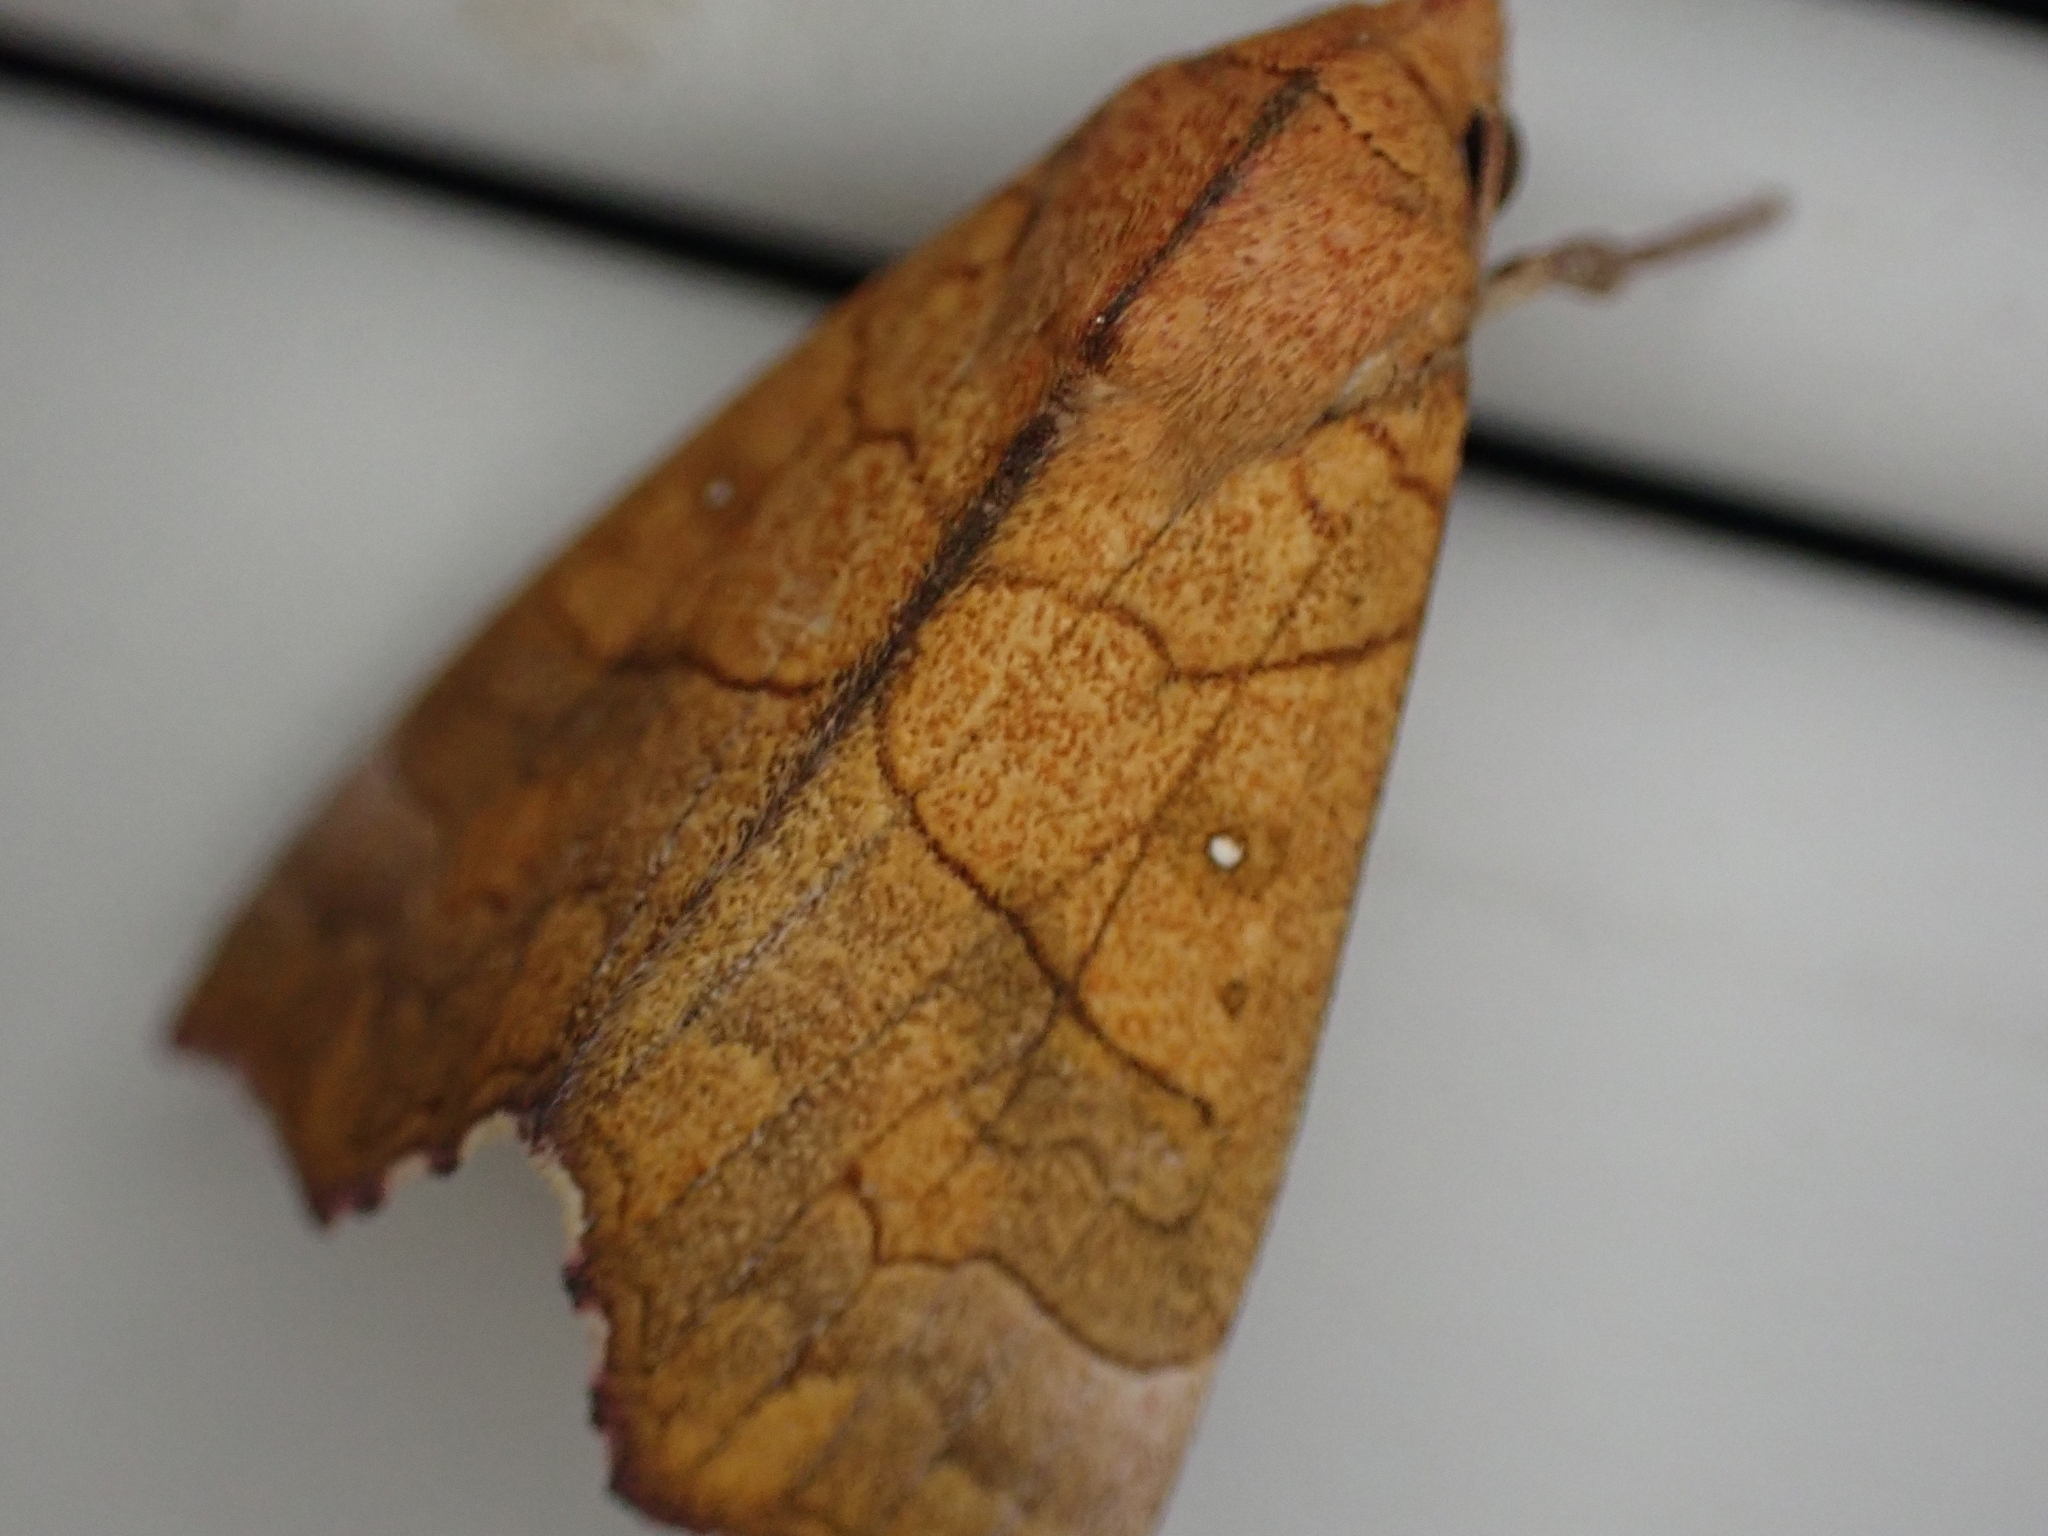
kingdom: Animalia
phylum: Arthropoda
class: Insecta
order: Lepidoptera
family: Erebidae
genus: Anomis
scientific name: Anomis erosa
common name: Yellow scallop moth
